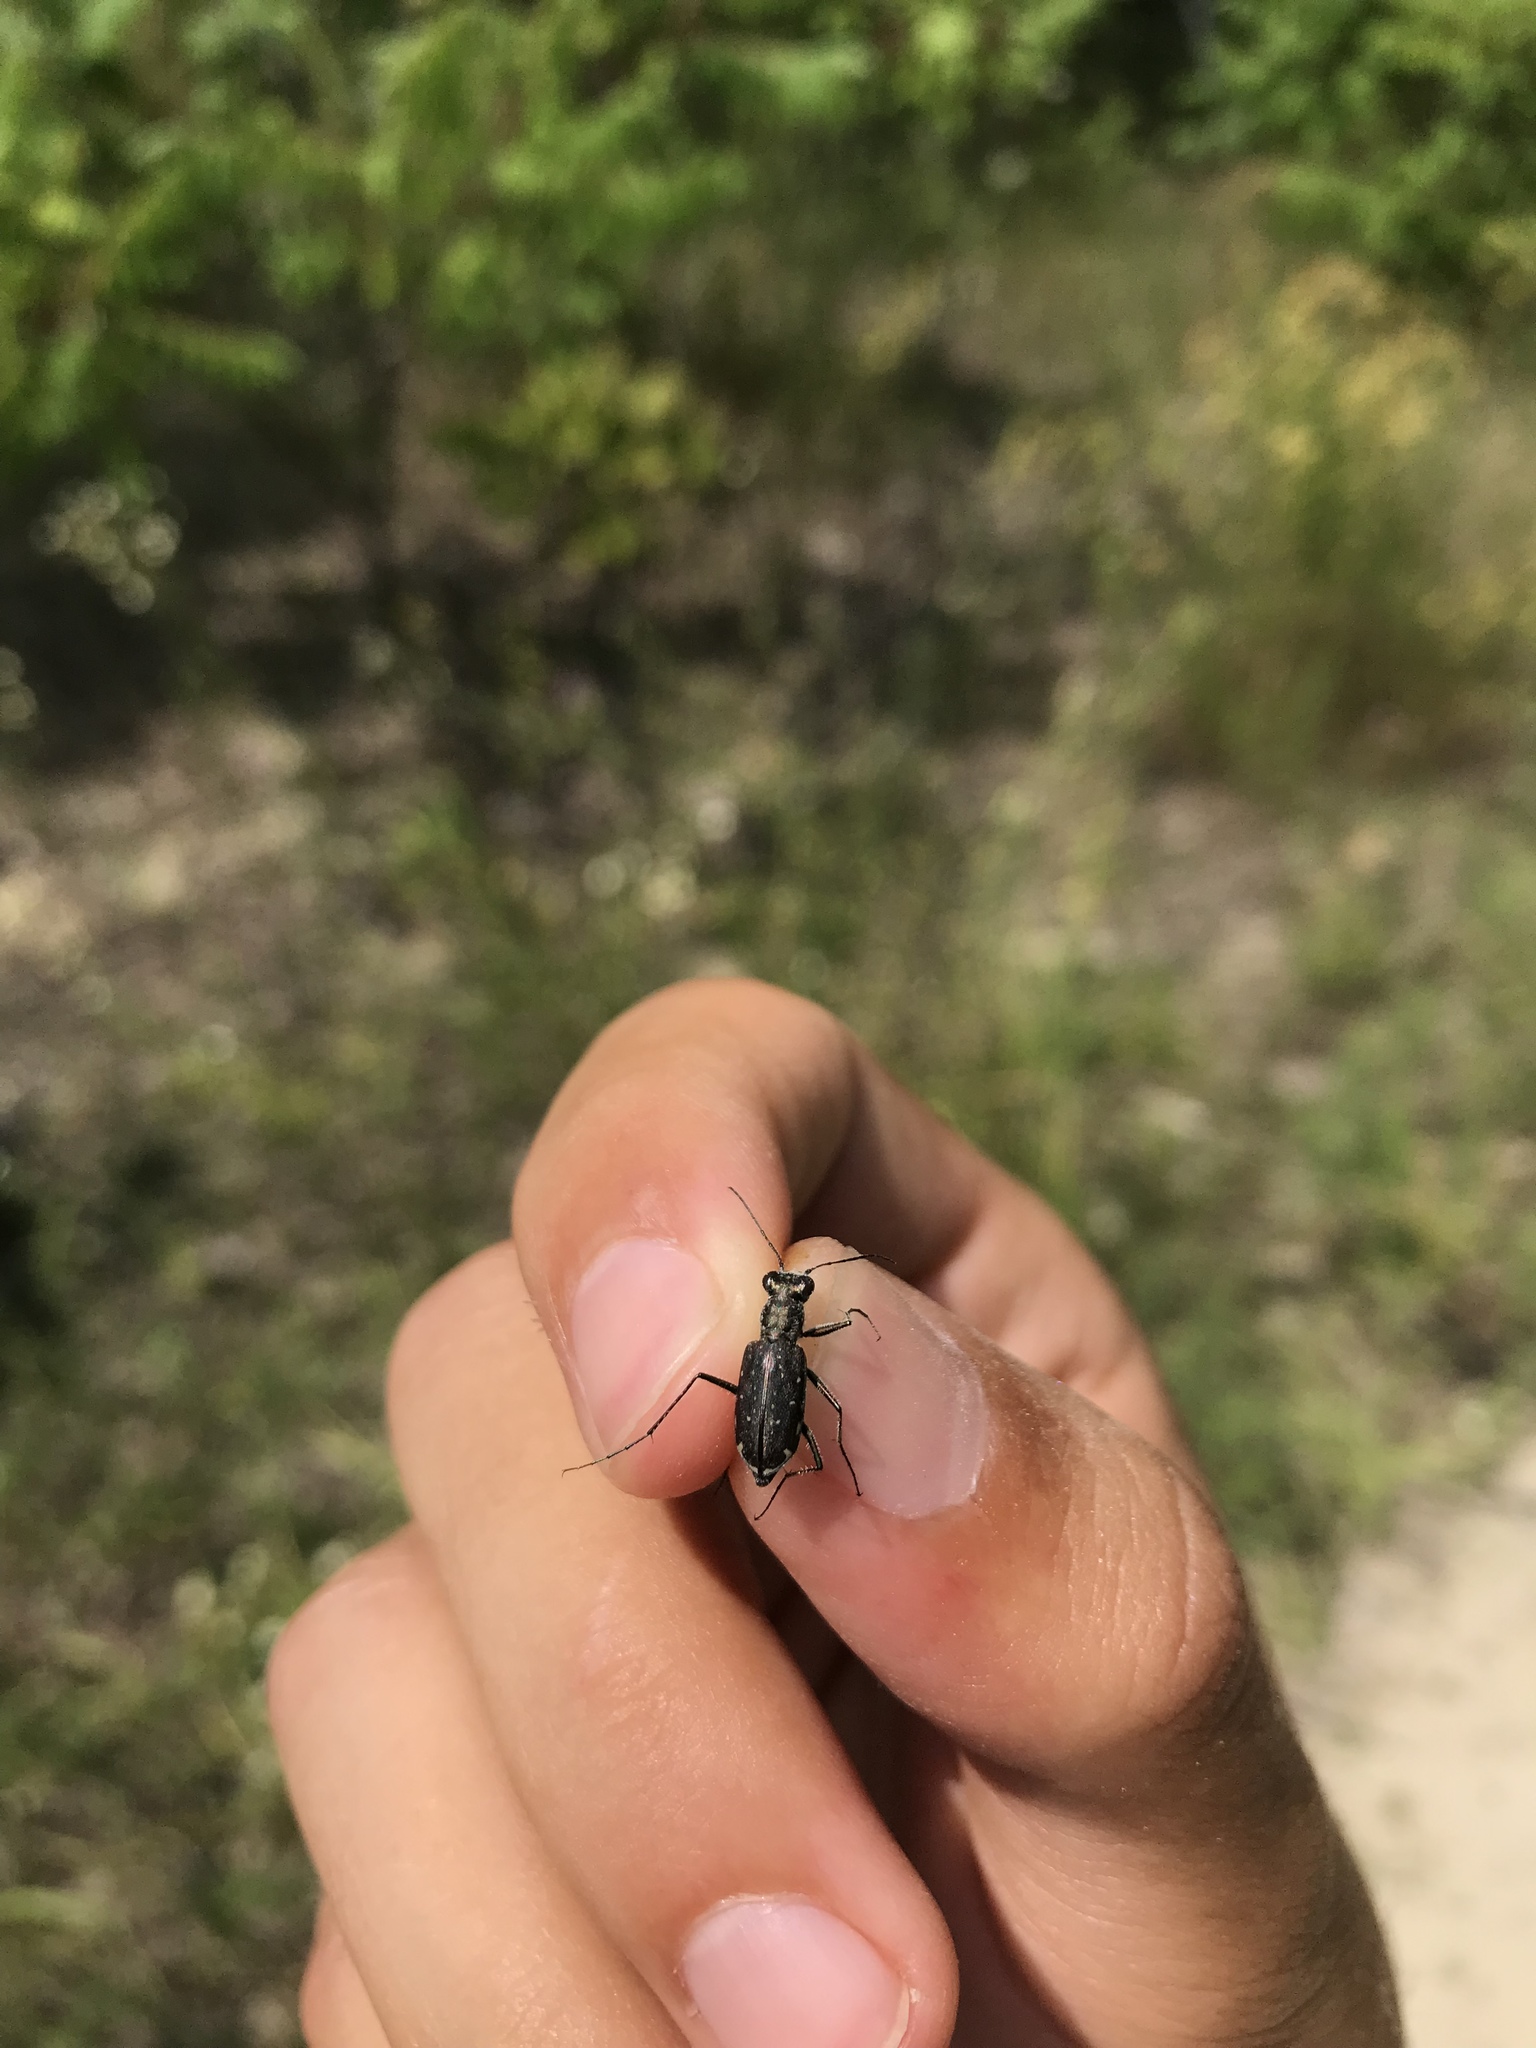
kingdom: Animalia
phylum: Arthropoda
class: Insecta
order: Coleoptera
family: Carabidae
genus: Cicindela
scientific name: Cicindela punctulata
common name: Punctured tiger beetle
